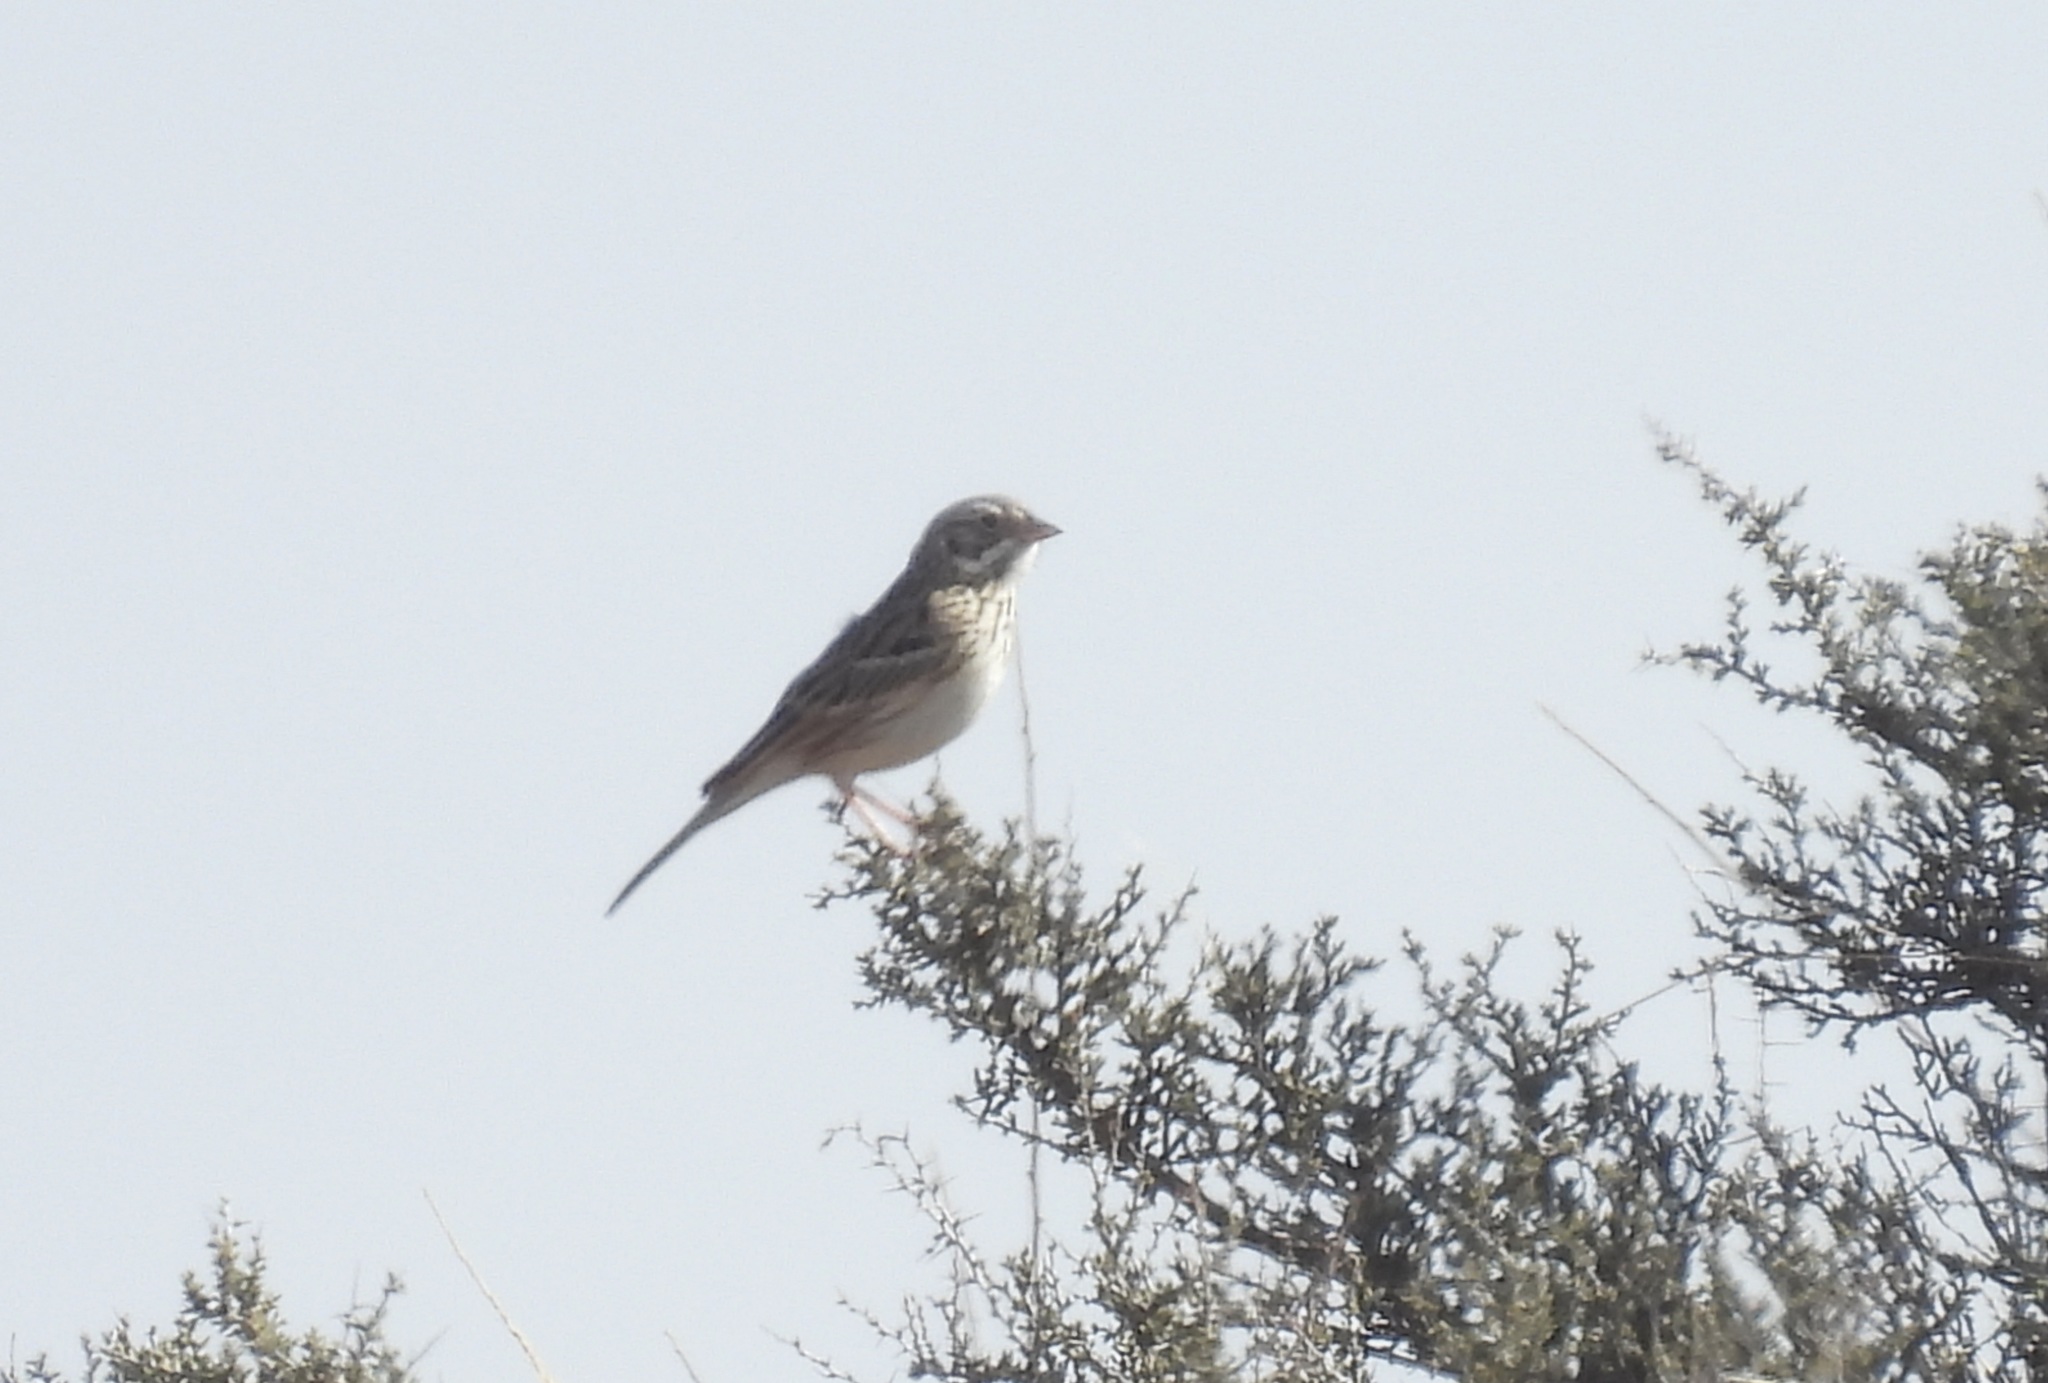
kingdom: Animalia
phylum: Chordata
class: Aves
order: Passeriformes
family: Passerellidae
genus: Pooecetes
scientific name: Pooecetes gramineus
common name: Vesper sparrow
